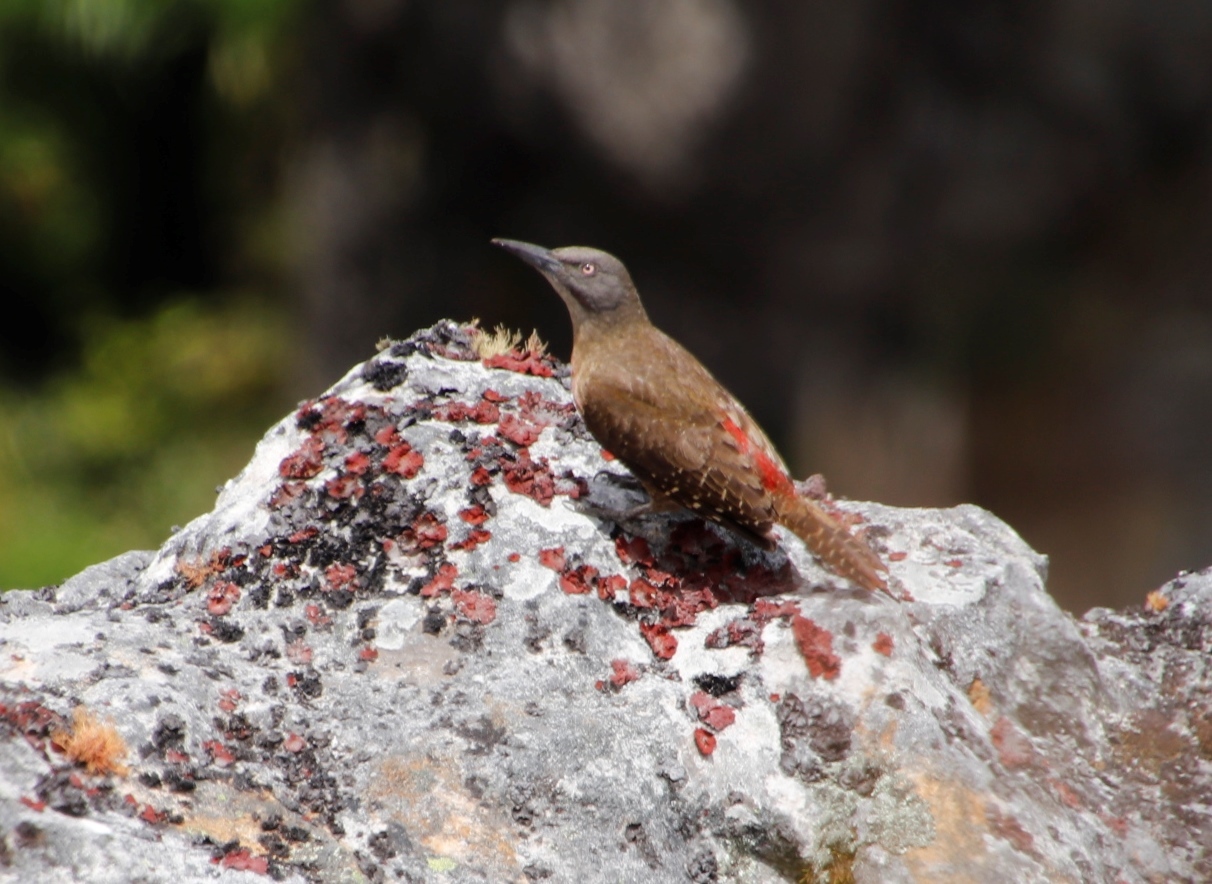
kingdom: Animalia
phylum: Chordata
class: Aves
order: Piciformes
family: Picidae
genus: Geocolaptes
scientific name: Geocolaptes olivaceus
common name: Ground woodpecker
